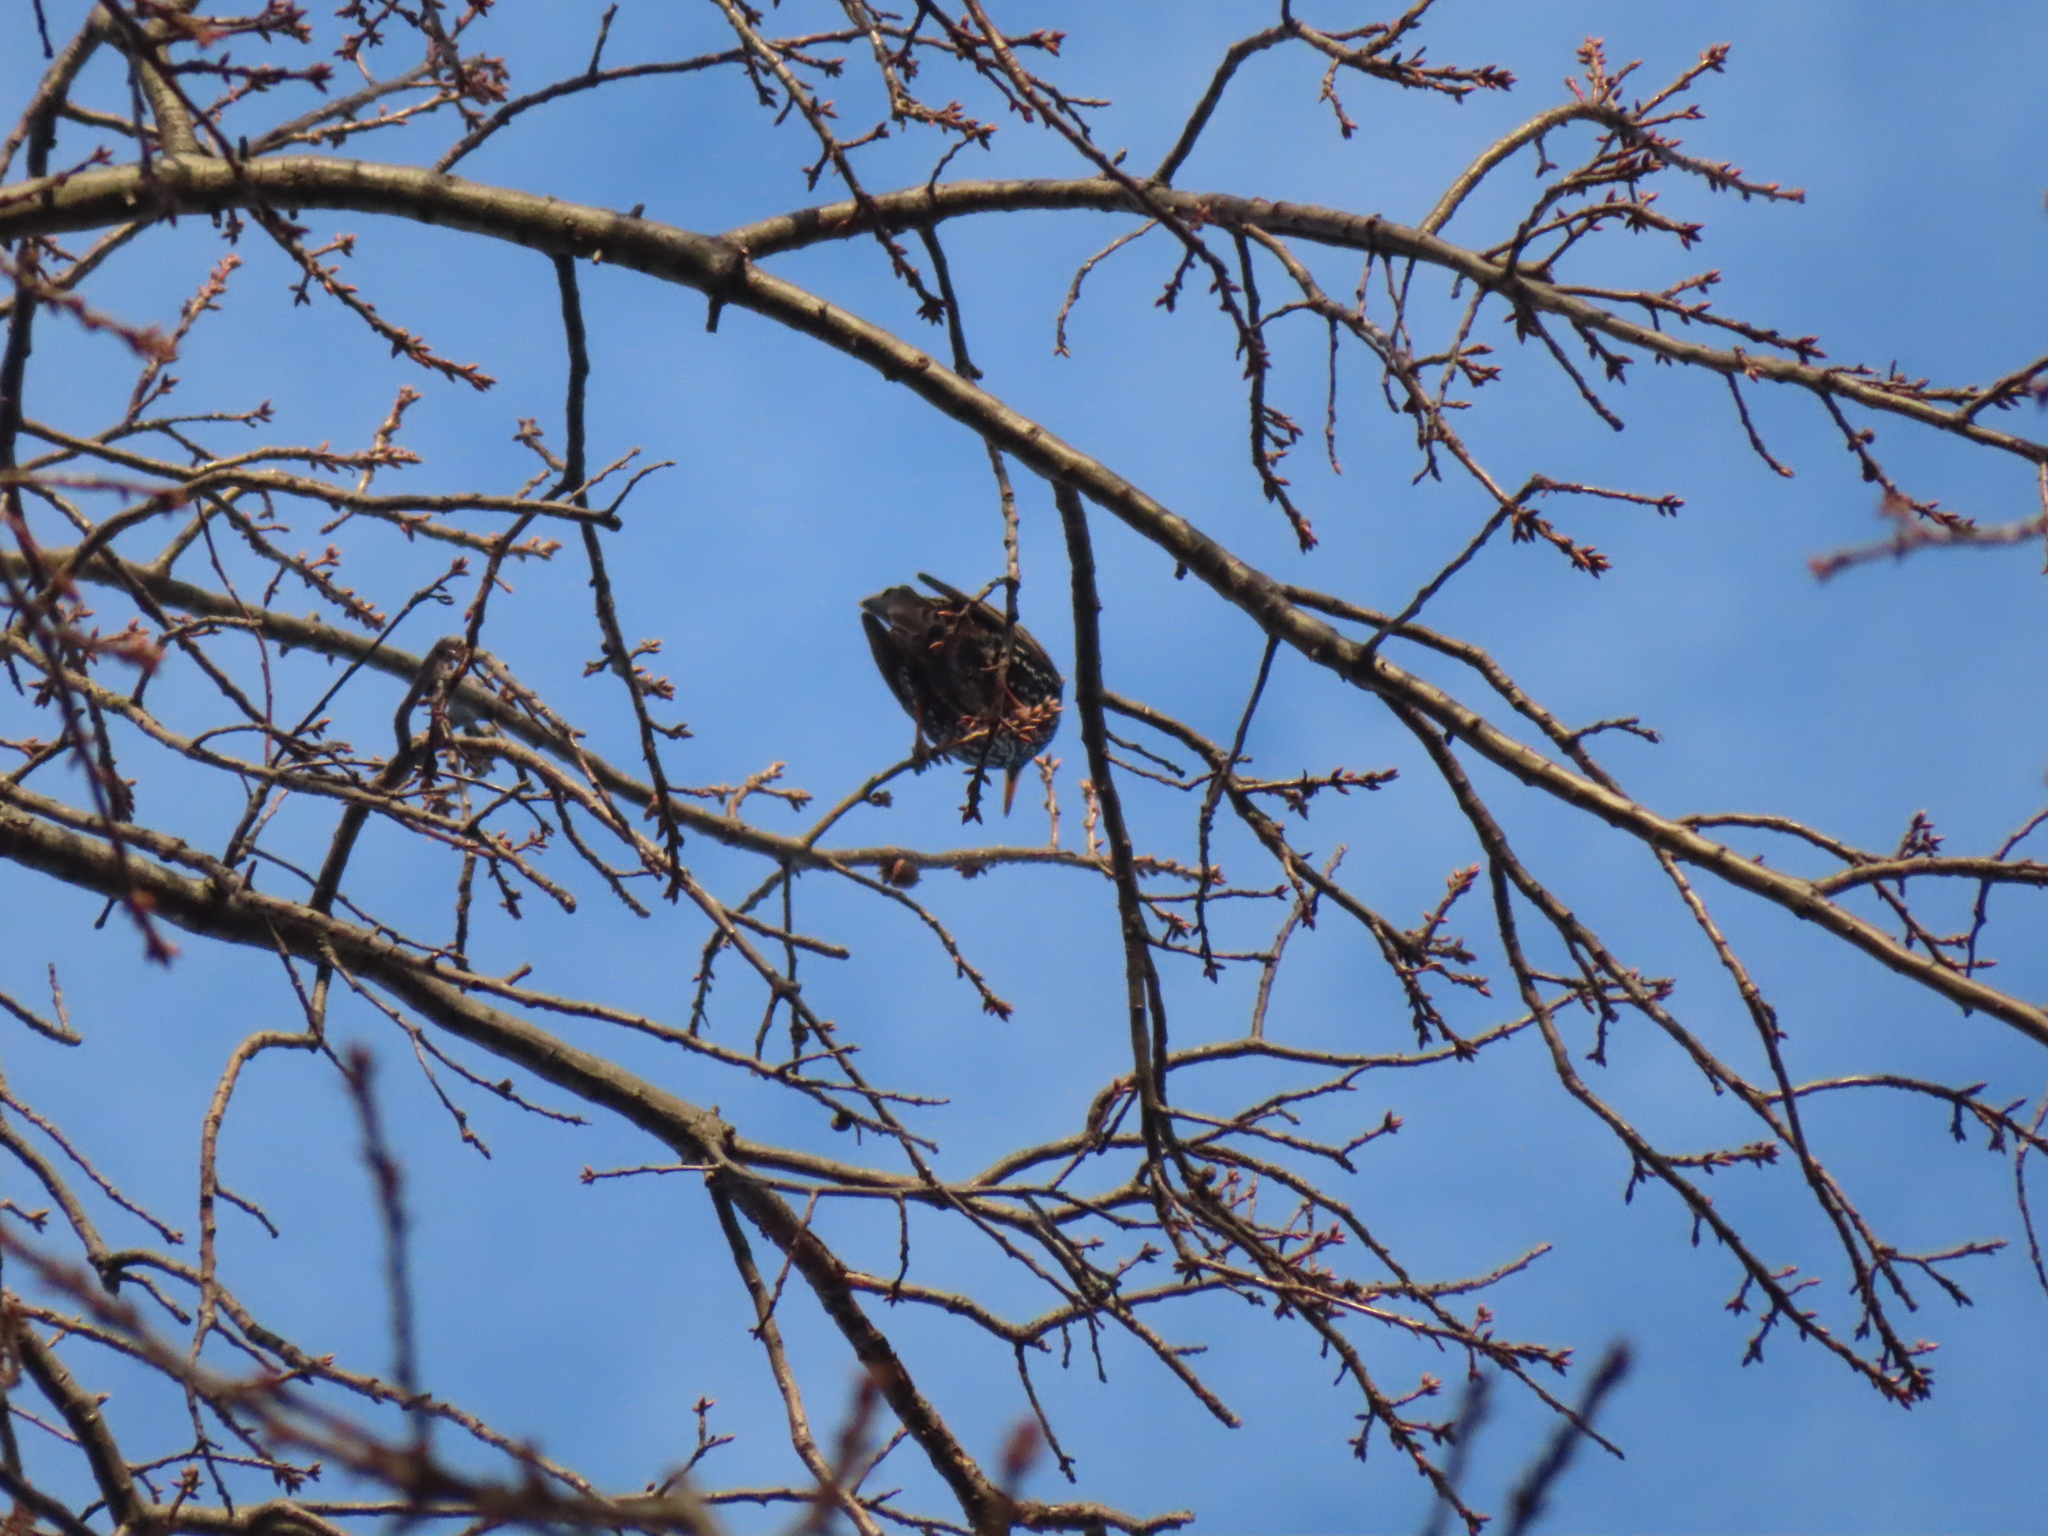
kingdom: Animalia
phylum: Chordata
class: Aves
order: Passeriformes
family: Sturnidae
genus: Sturnus
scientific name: Sturnus vulgaris
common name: Common starling
